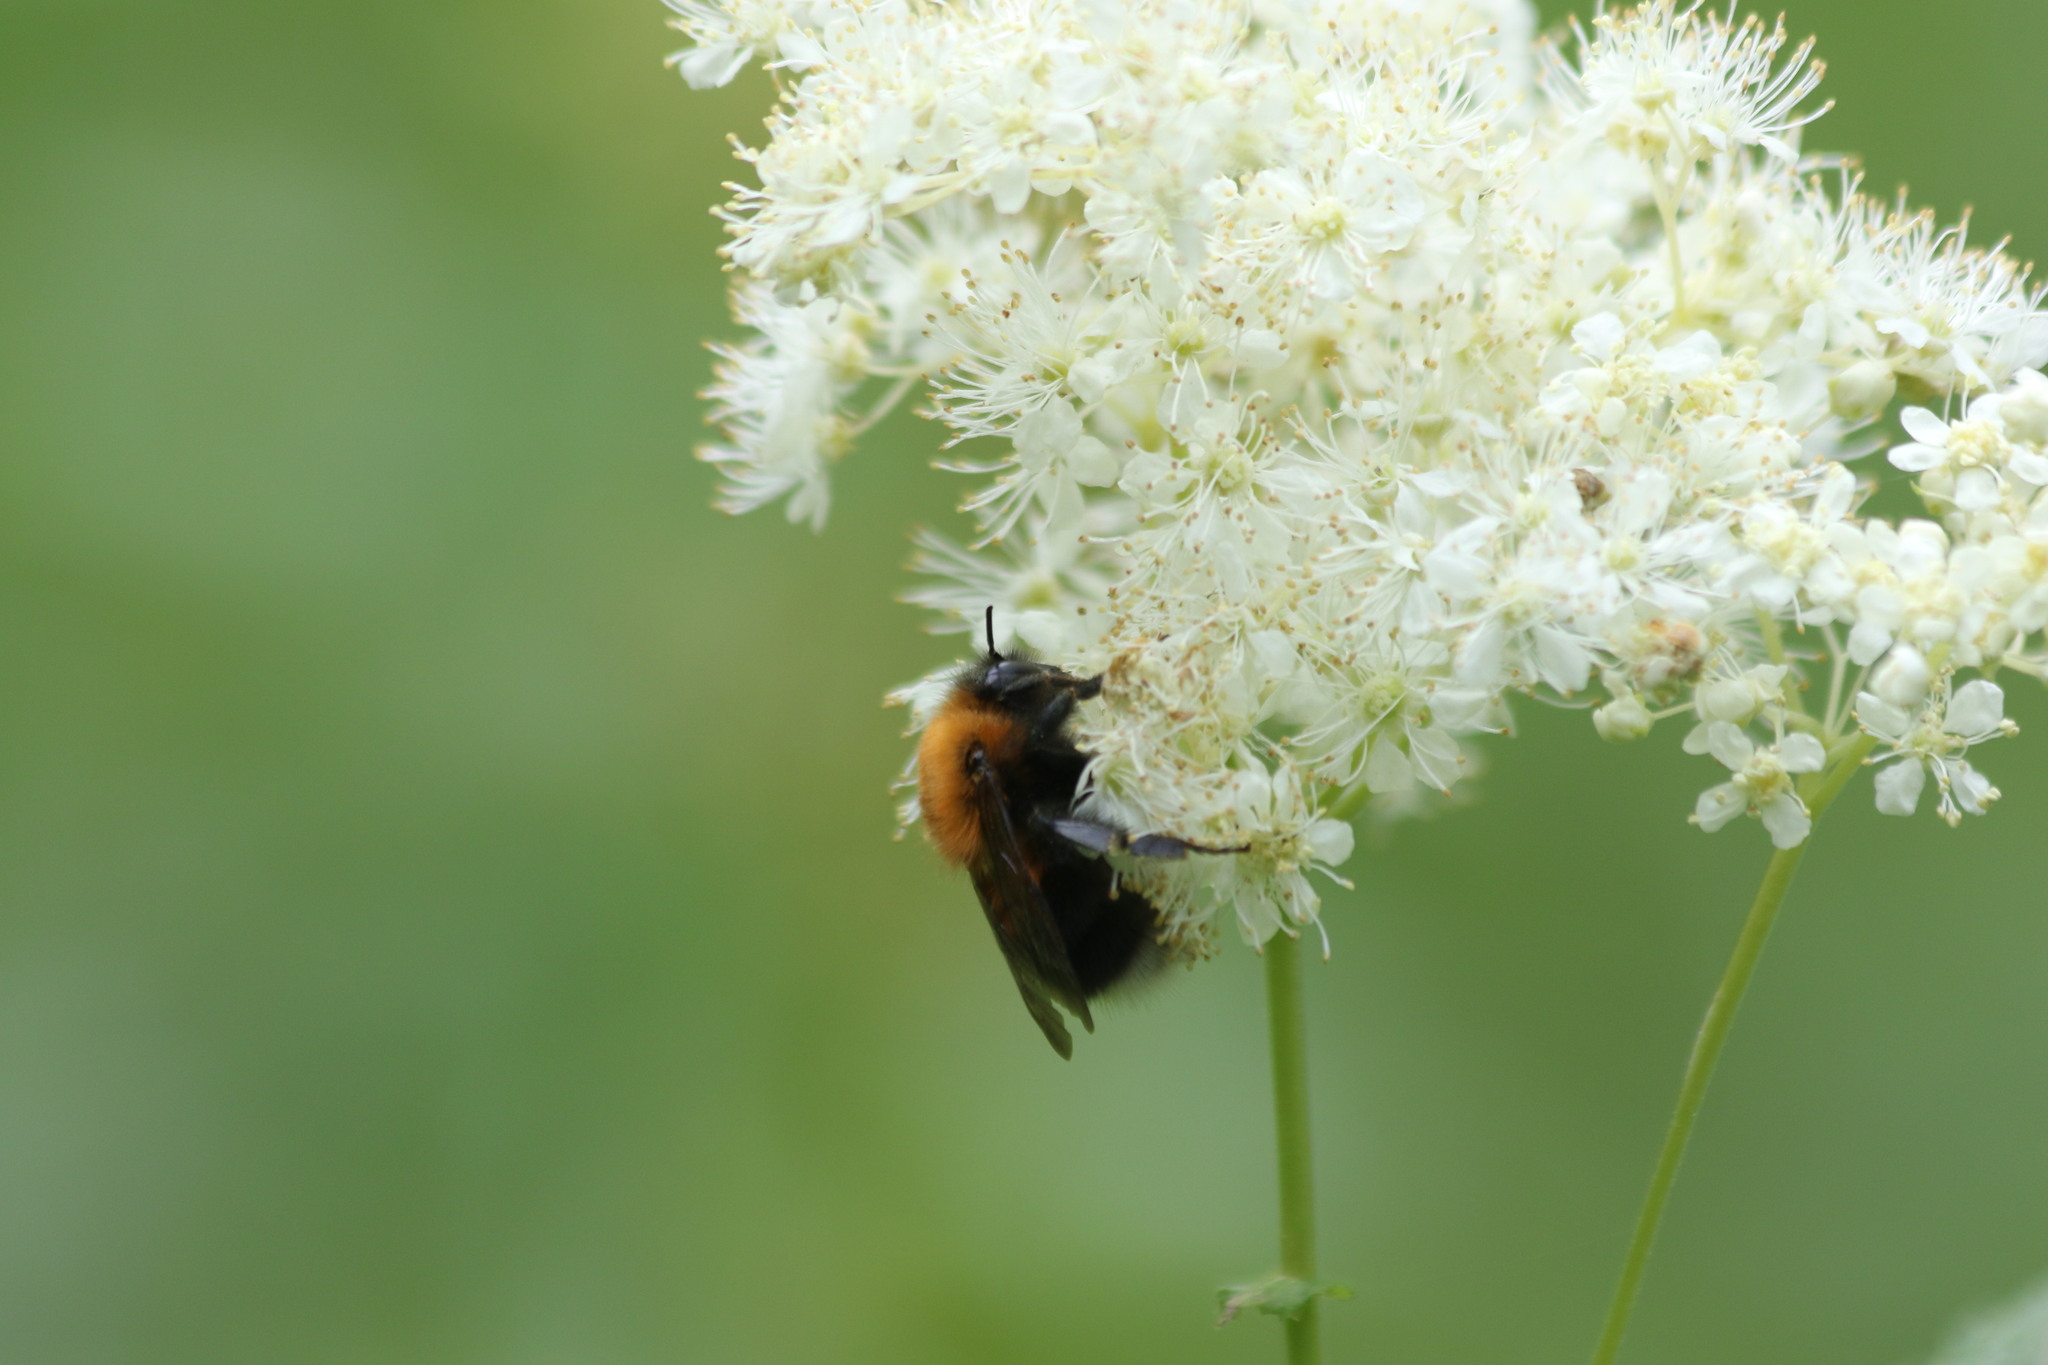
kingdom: Animalia
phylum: Arthropoda
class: Insecta
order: Hymenoptera
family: Apidae
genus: Bombus
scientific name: Bombus hypnorum
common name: New garden bumblebee
